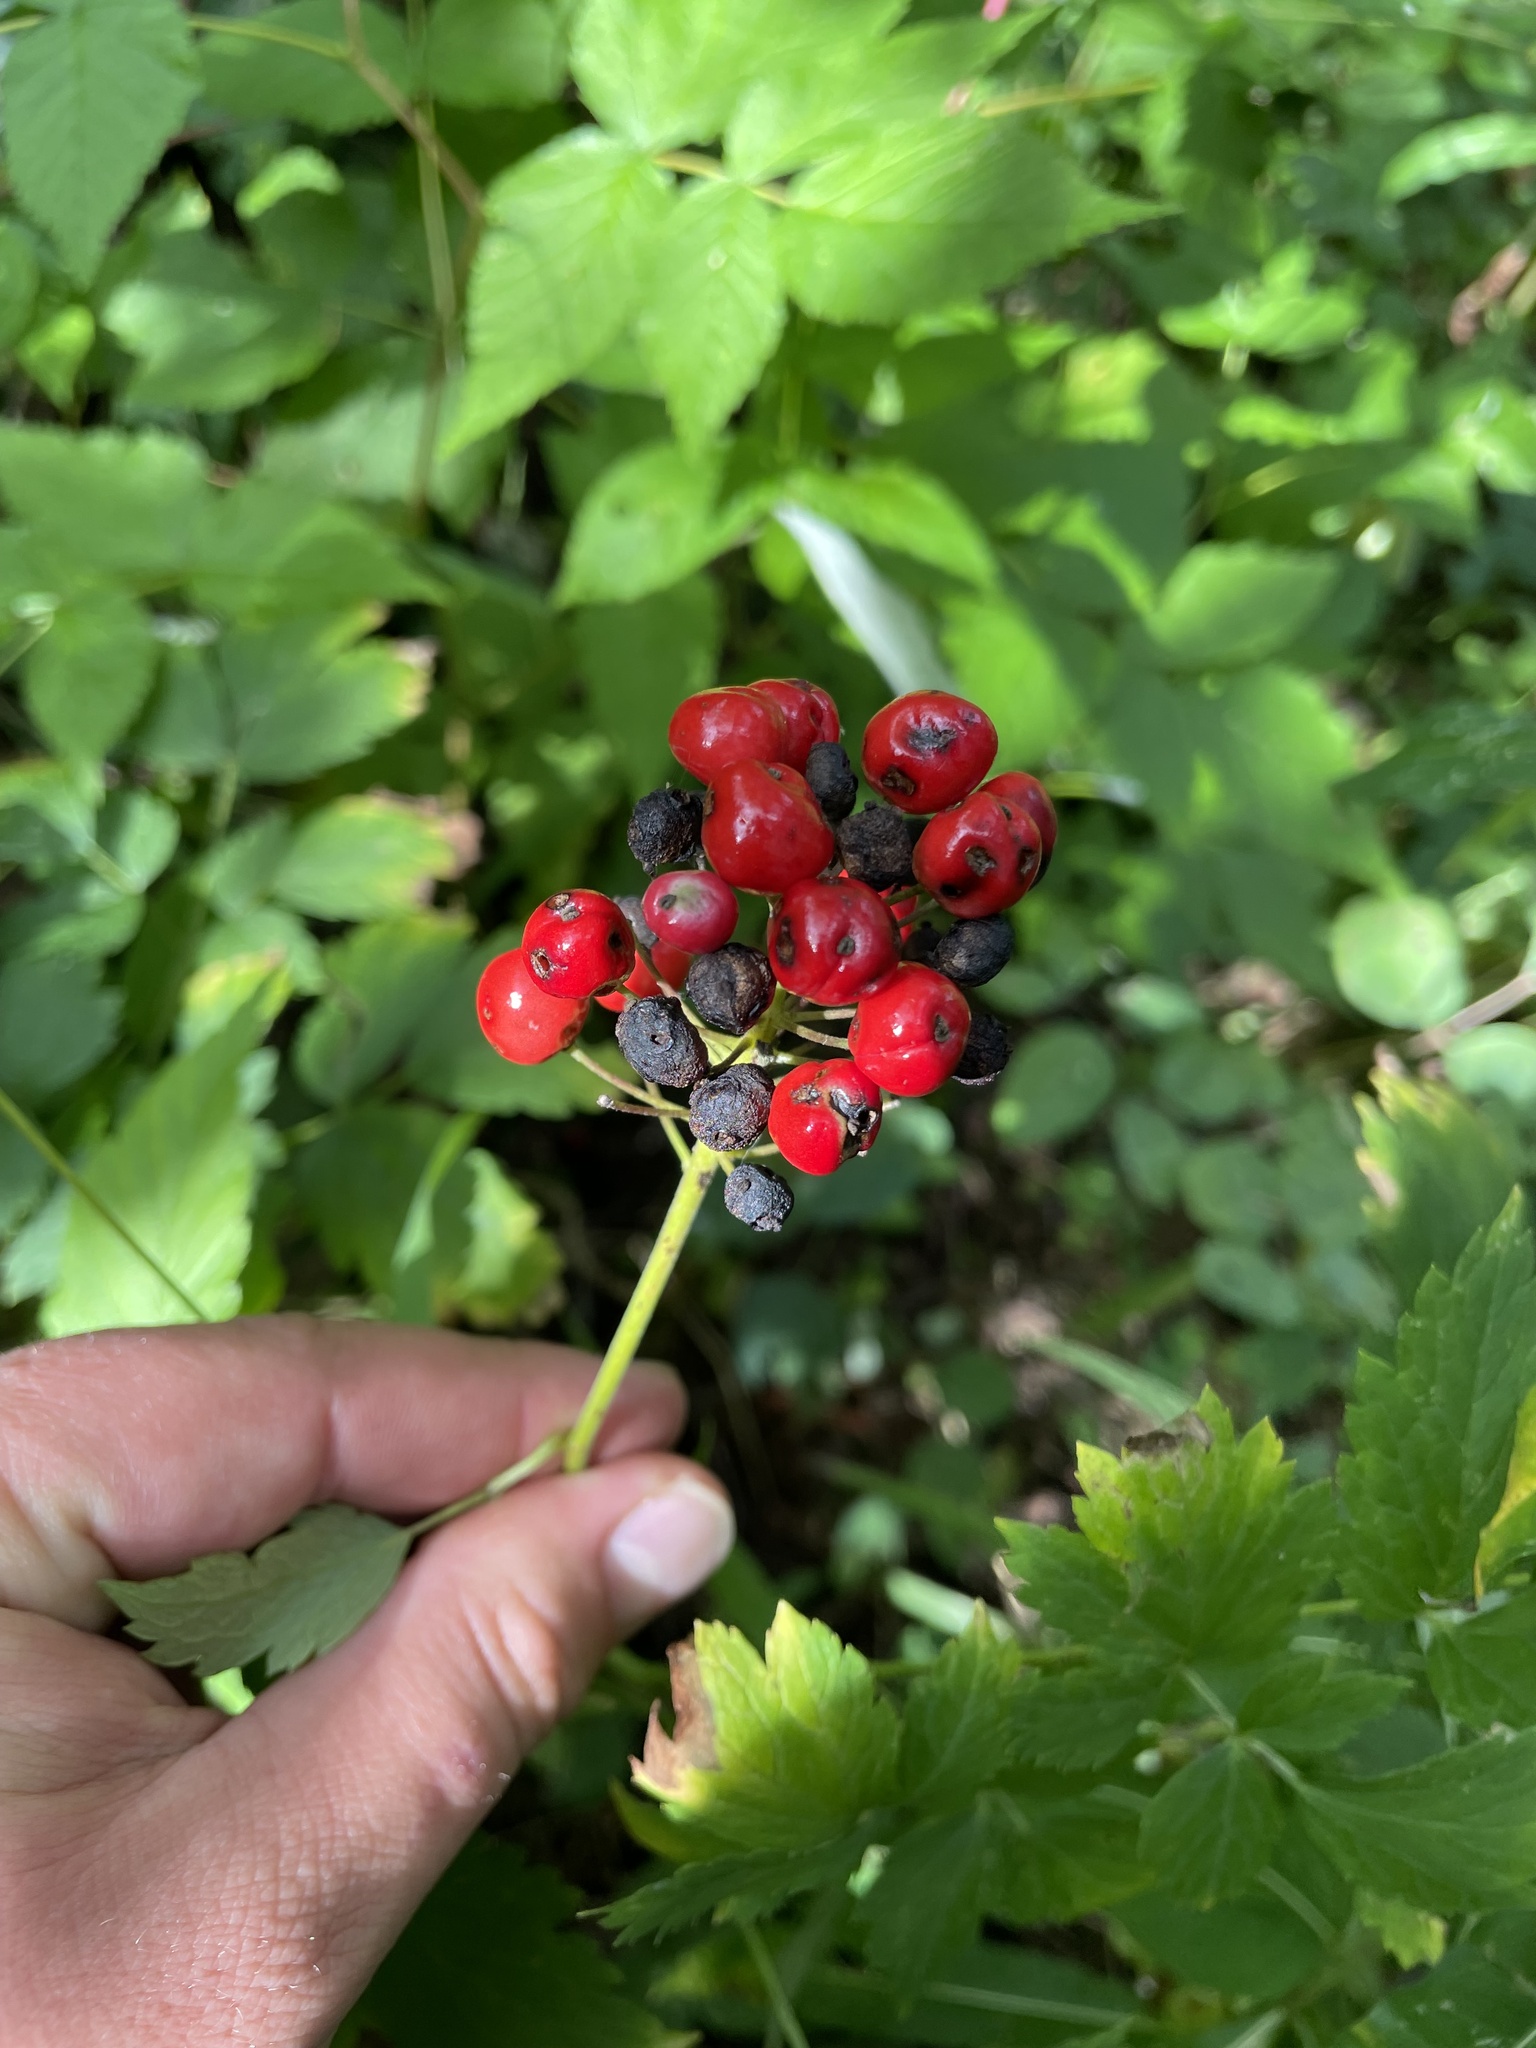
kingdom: Plantae
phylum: Tracheophyta
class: Magnoliopsida
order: Ranunculales
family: Ranunculaceae
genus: Actaea
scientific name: Actaea rubra
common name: Red baneberry
